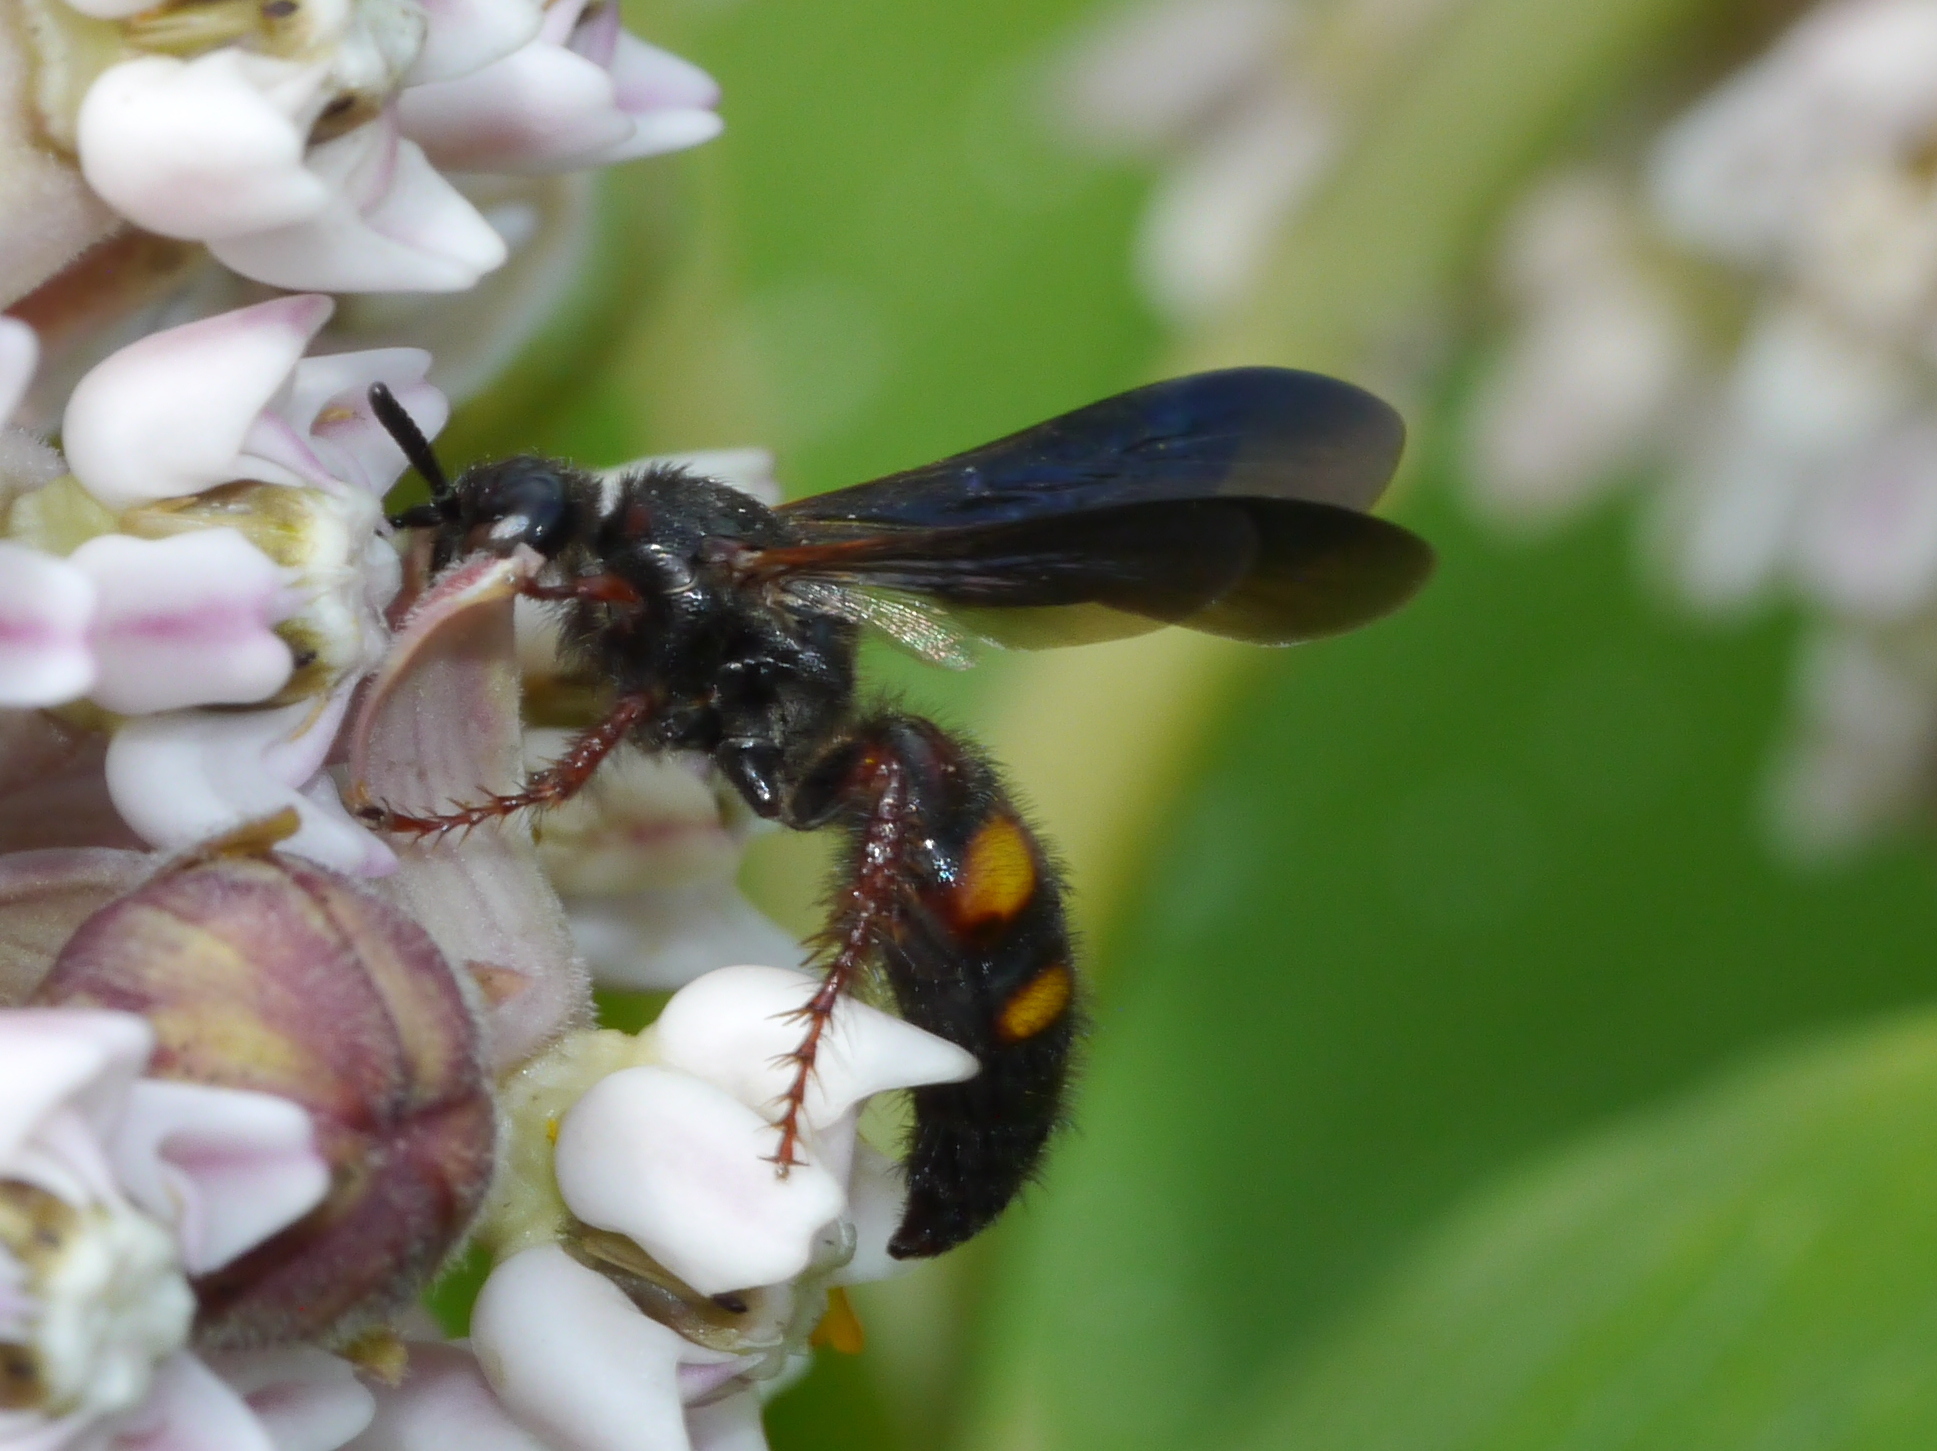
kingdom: Animalia
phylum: Arthropoda
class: Insecta
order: Hymenoptera
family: Scoliidae
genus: Scolia
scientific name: Scolia nobilitata
